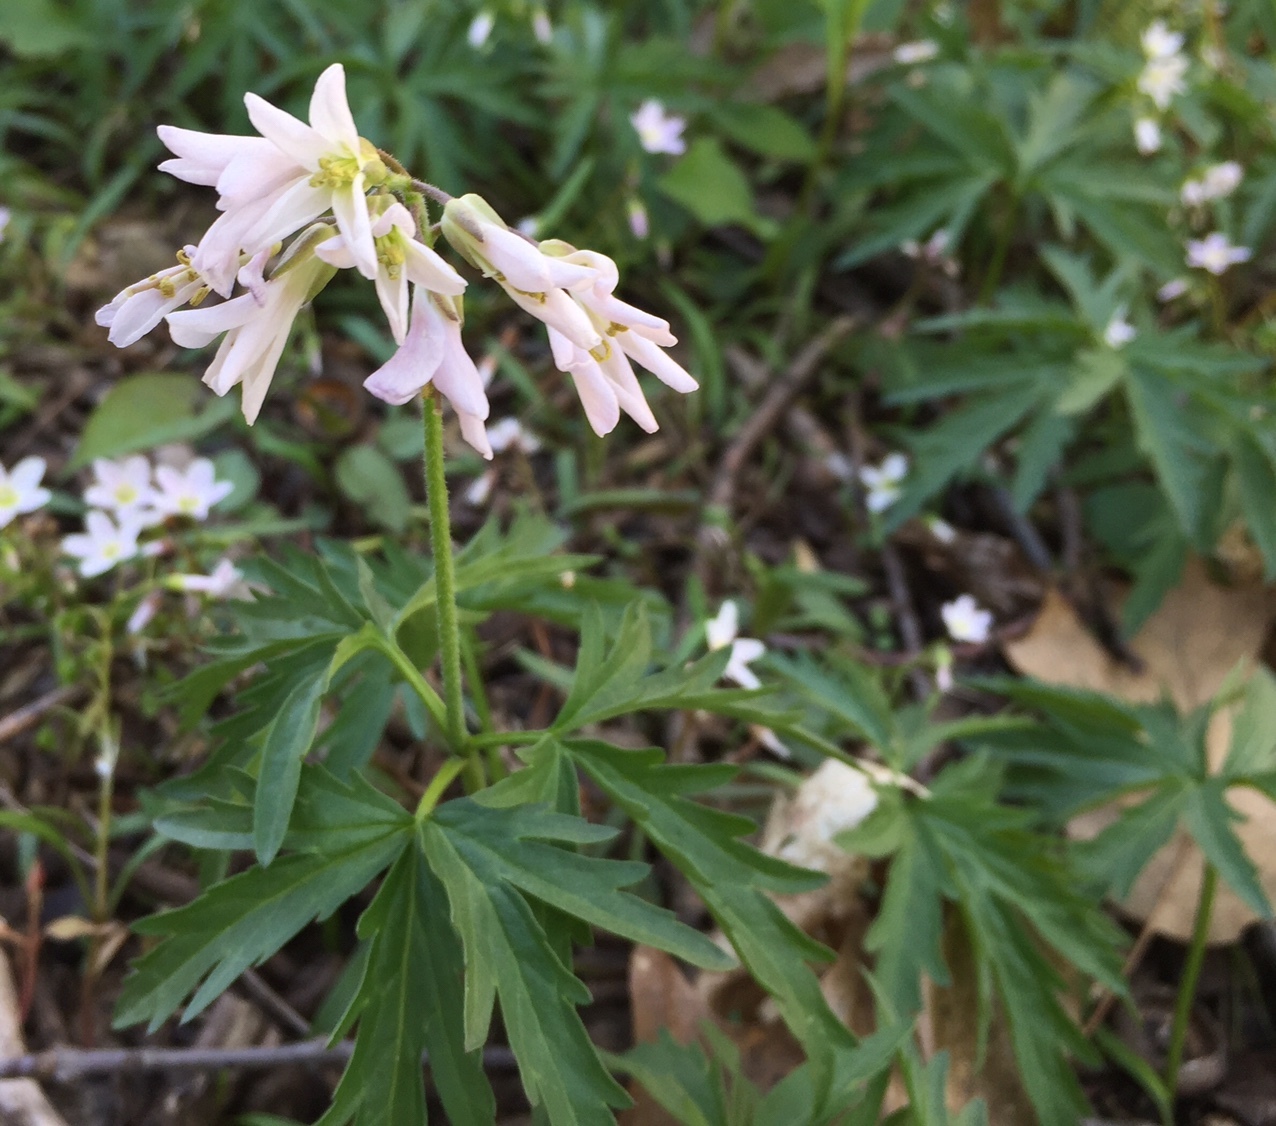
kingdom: Plantae
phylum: Tracheophyta
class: Magnoliopsida
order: Brassicales
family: Brassicaceae
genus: Cardamine
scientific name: Cardamine concatenata
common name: Cut-leaf toothcup
